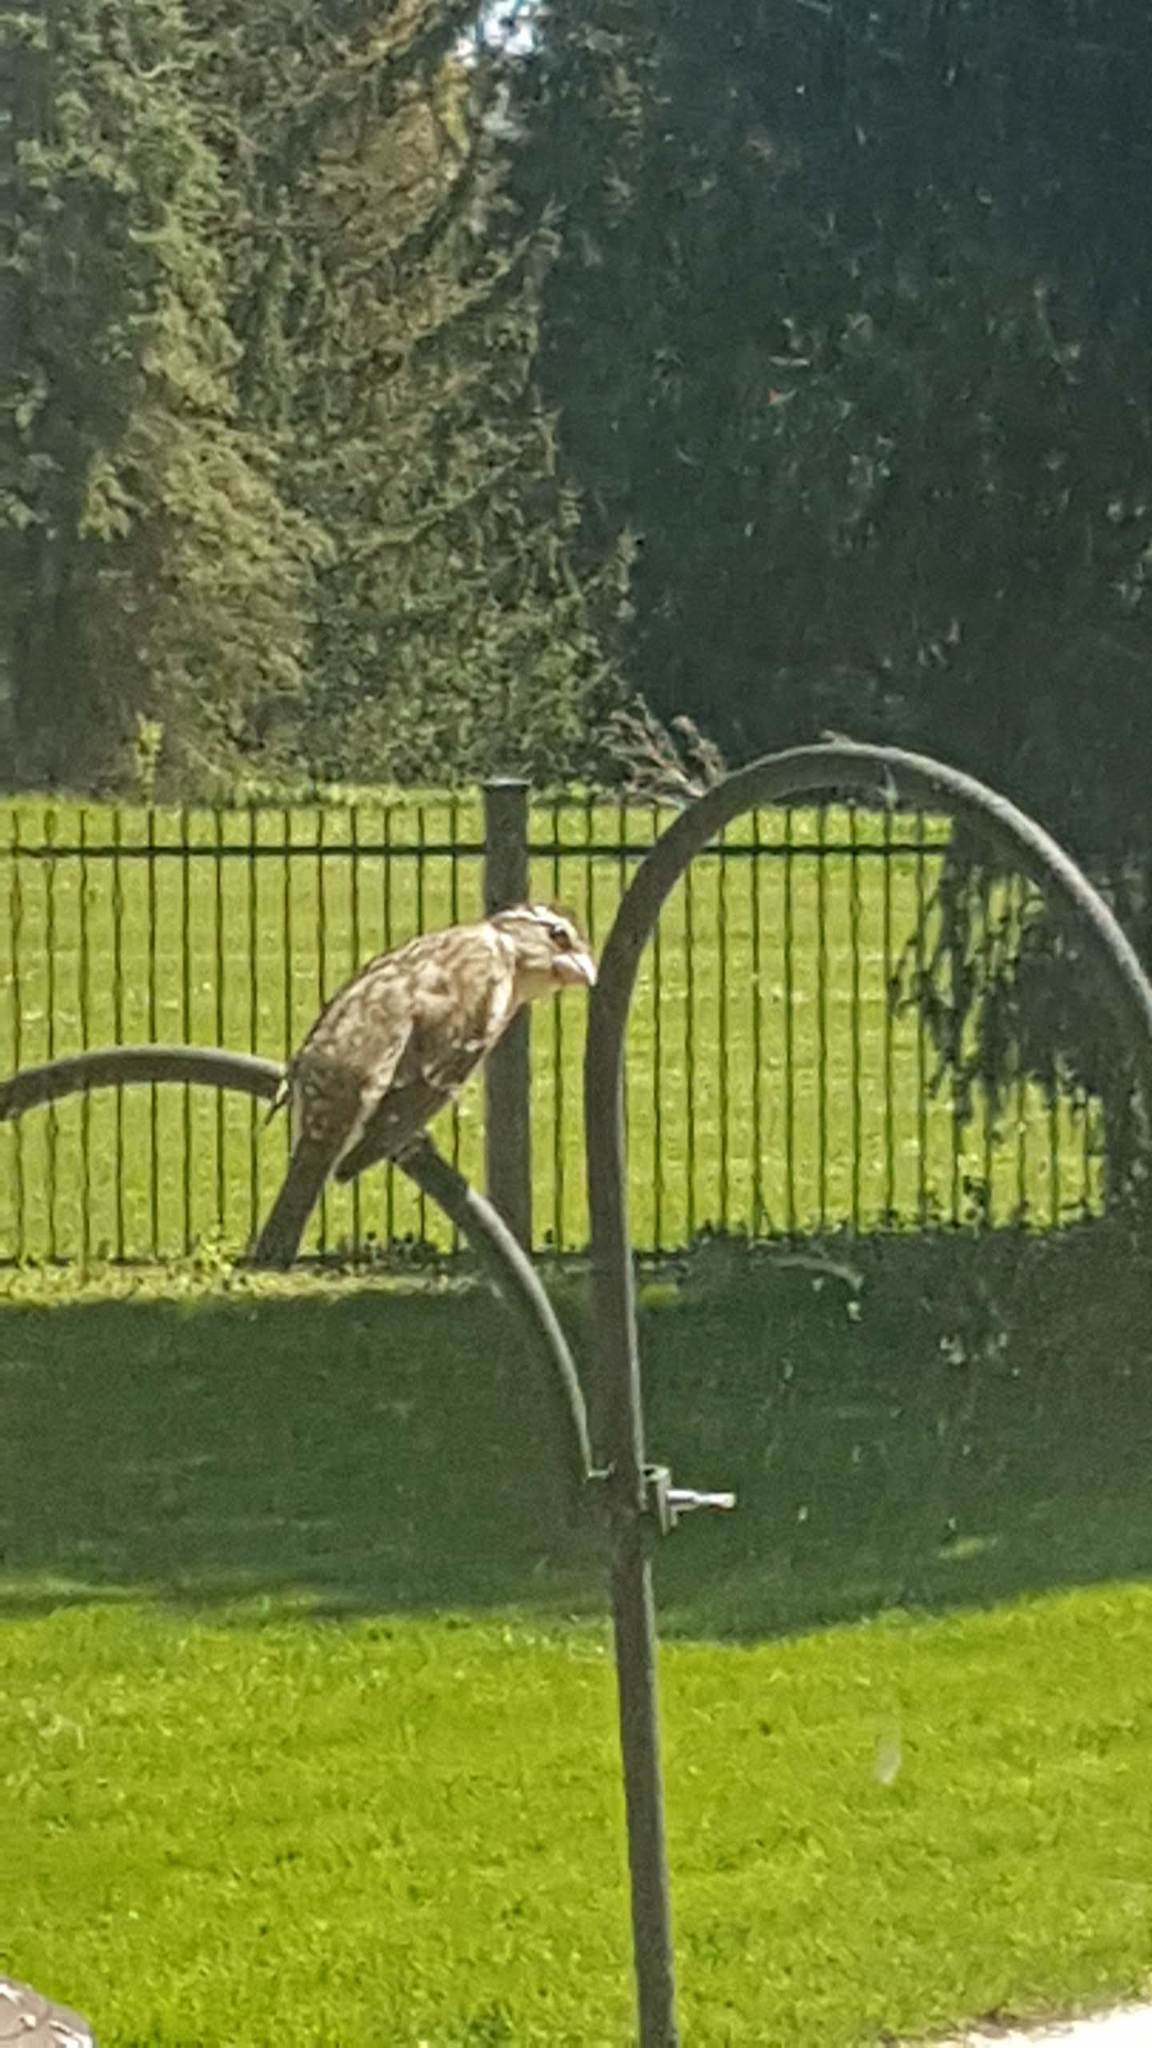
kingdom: Animalia
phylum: Chordata
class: Aves
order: Passeriformes
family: Cardinalidae
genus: Pheucticus
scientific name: Pheucticus ludovicianus
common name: Rose-breasted grosbeak
